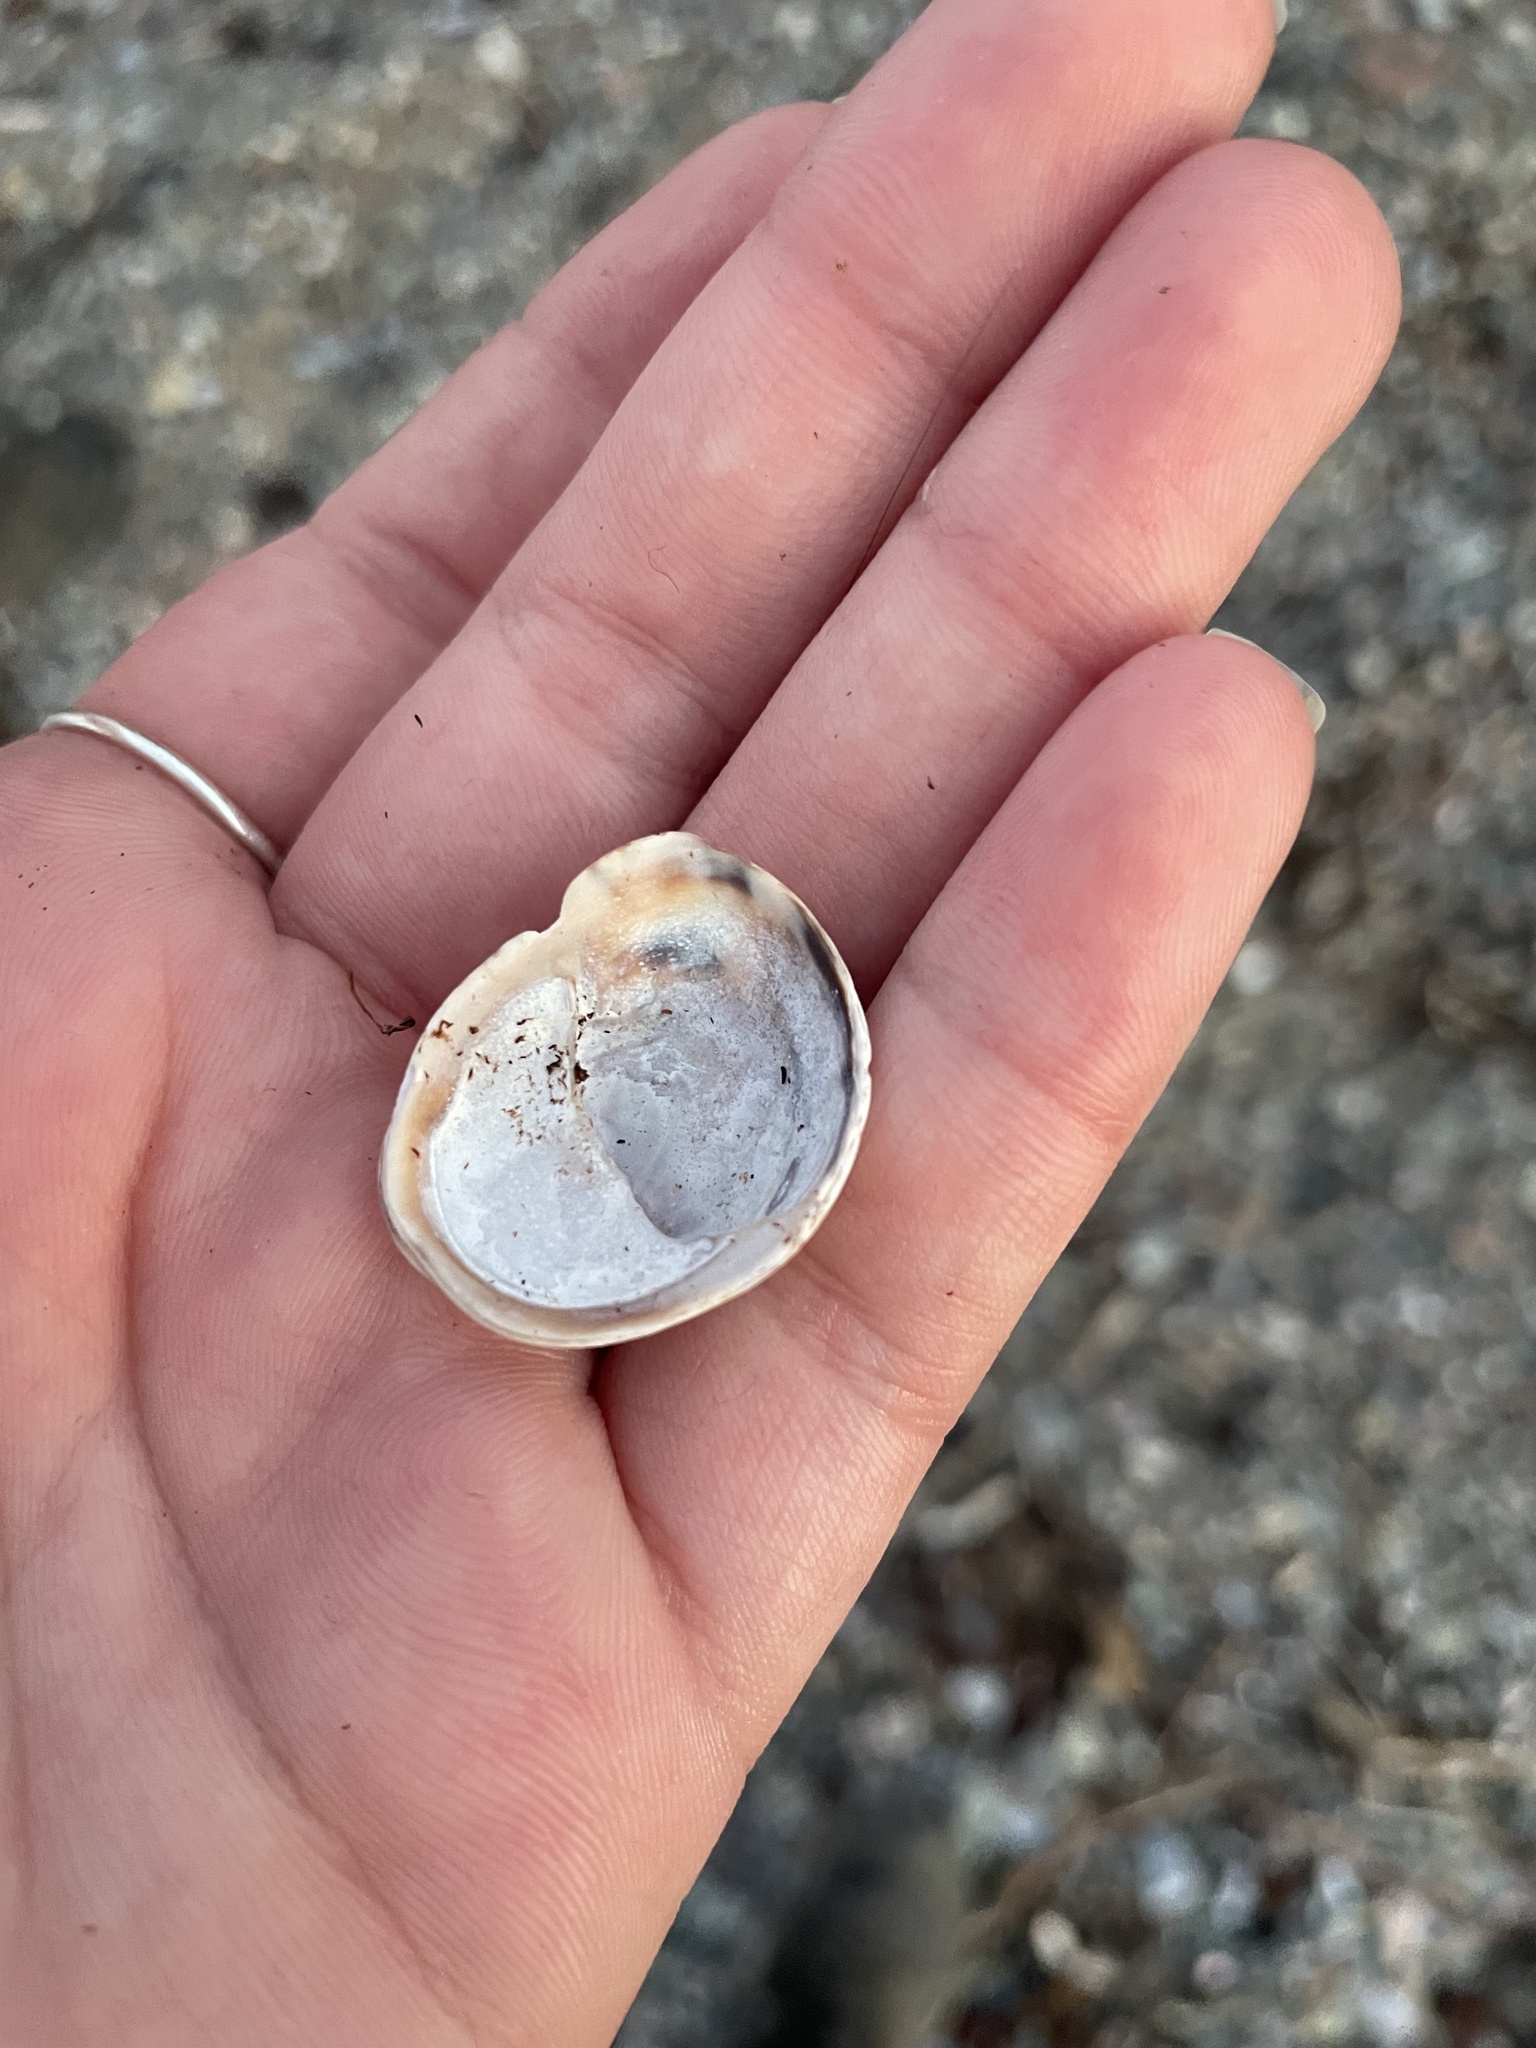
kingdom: Animalia
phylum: Mollusca
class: Gastropoda
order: Littorinimorpha
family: Calyptraeidae
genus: Crepidula
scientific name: Crepidula fornicata
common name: Slipper limpet
